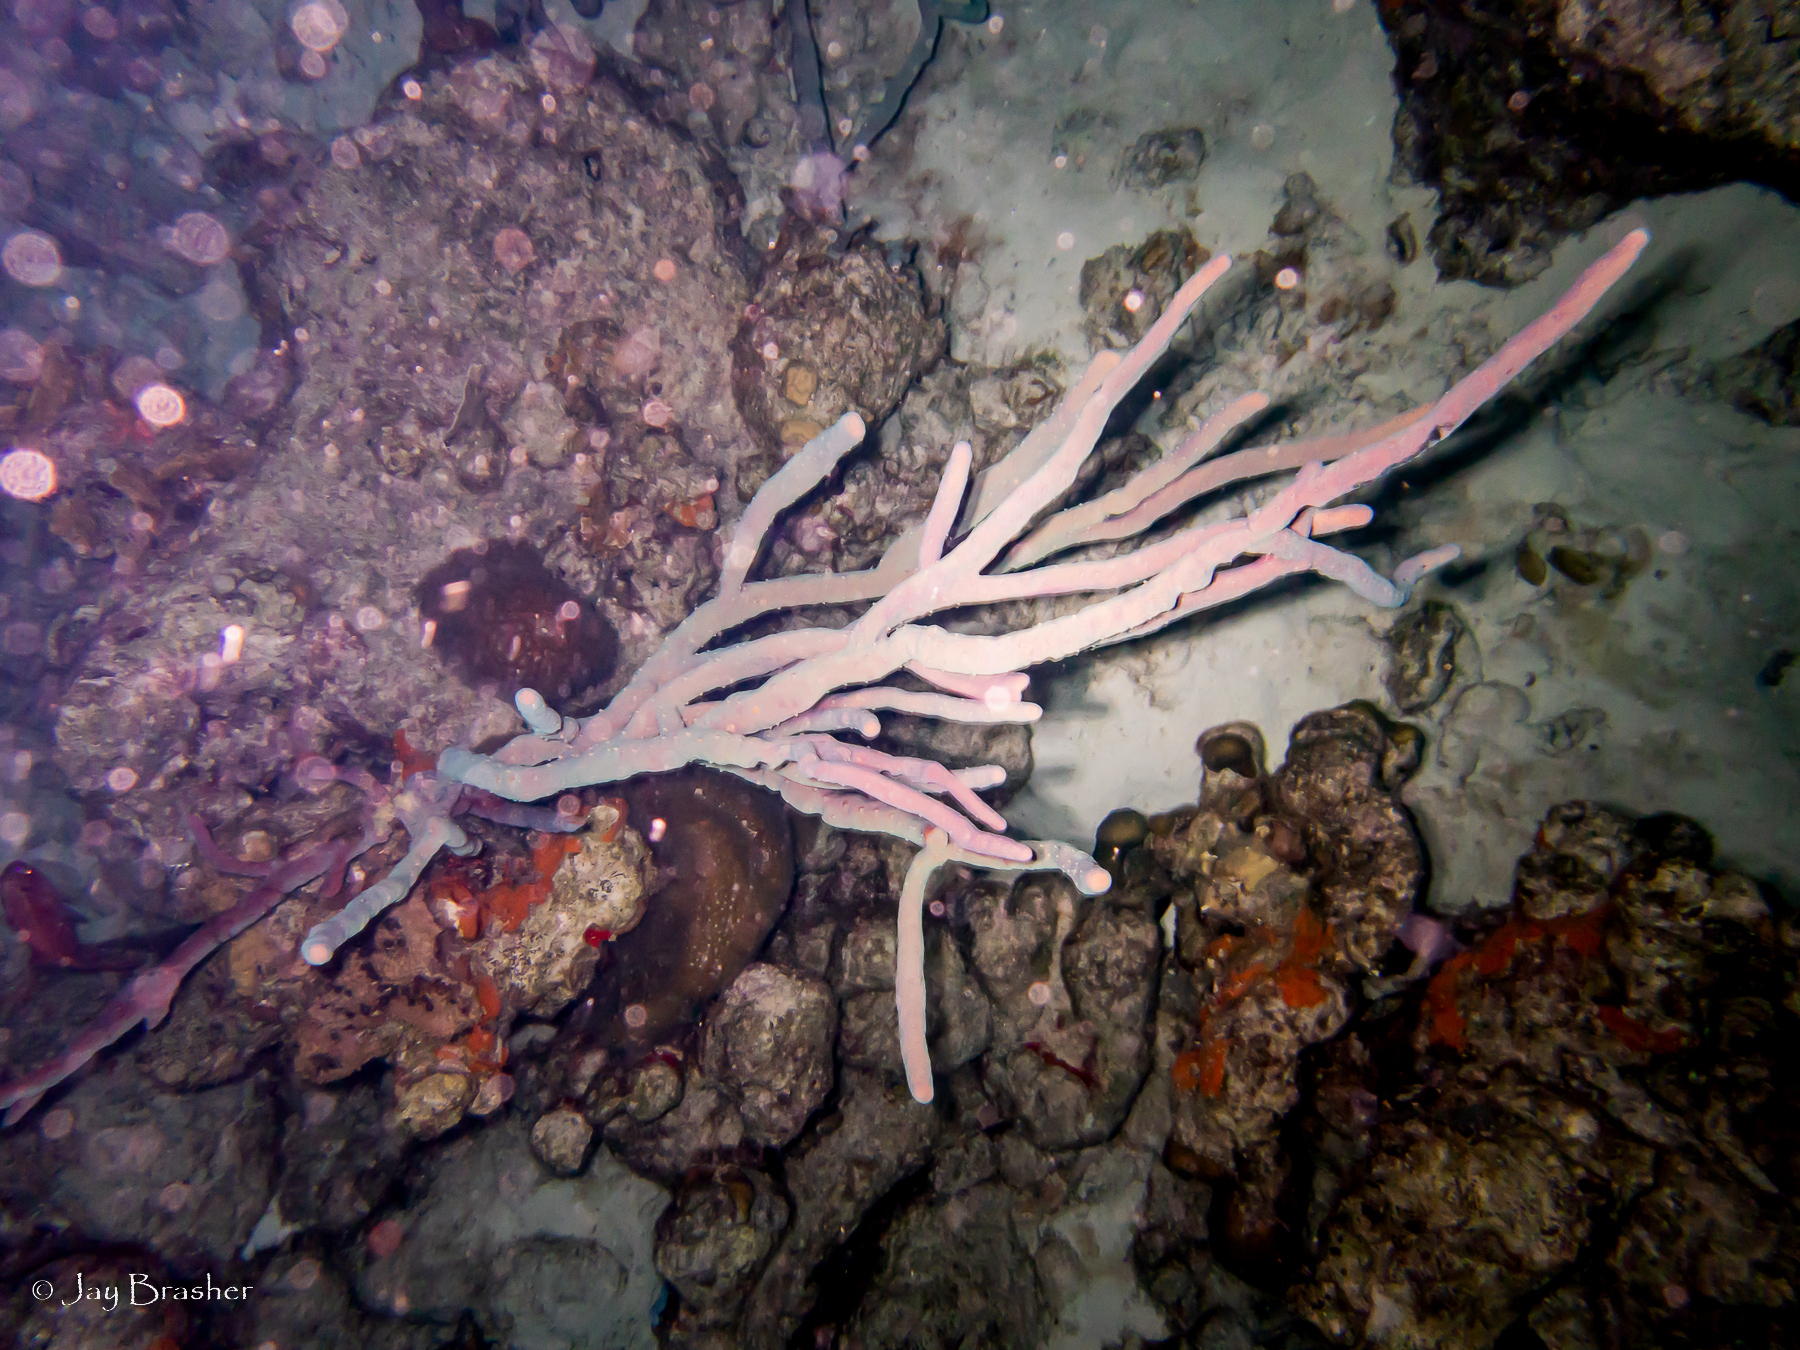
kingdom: Animalia
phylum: Porifera
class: Demospongiae
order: Verongiida
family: Aplysinidae
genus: Aplysina
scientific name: Aplysina cauliformis
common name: Branching candle sponge
